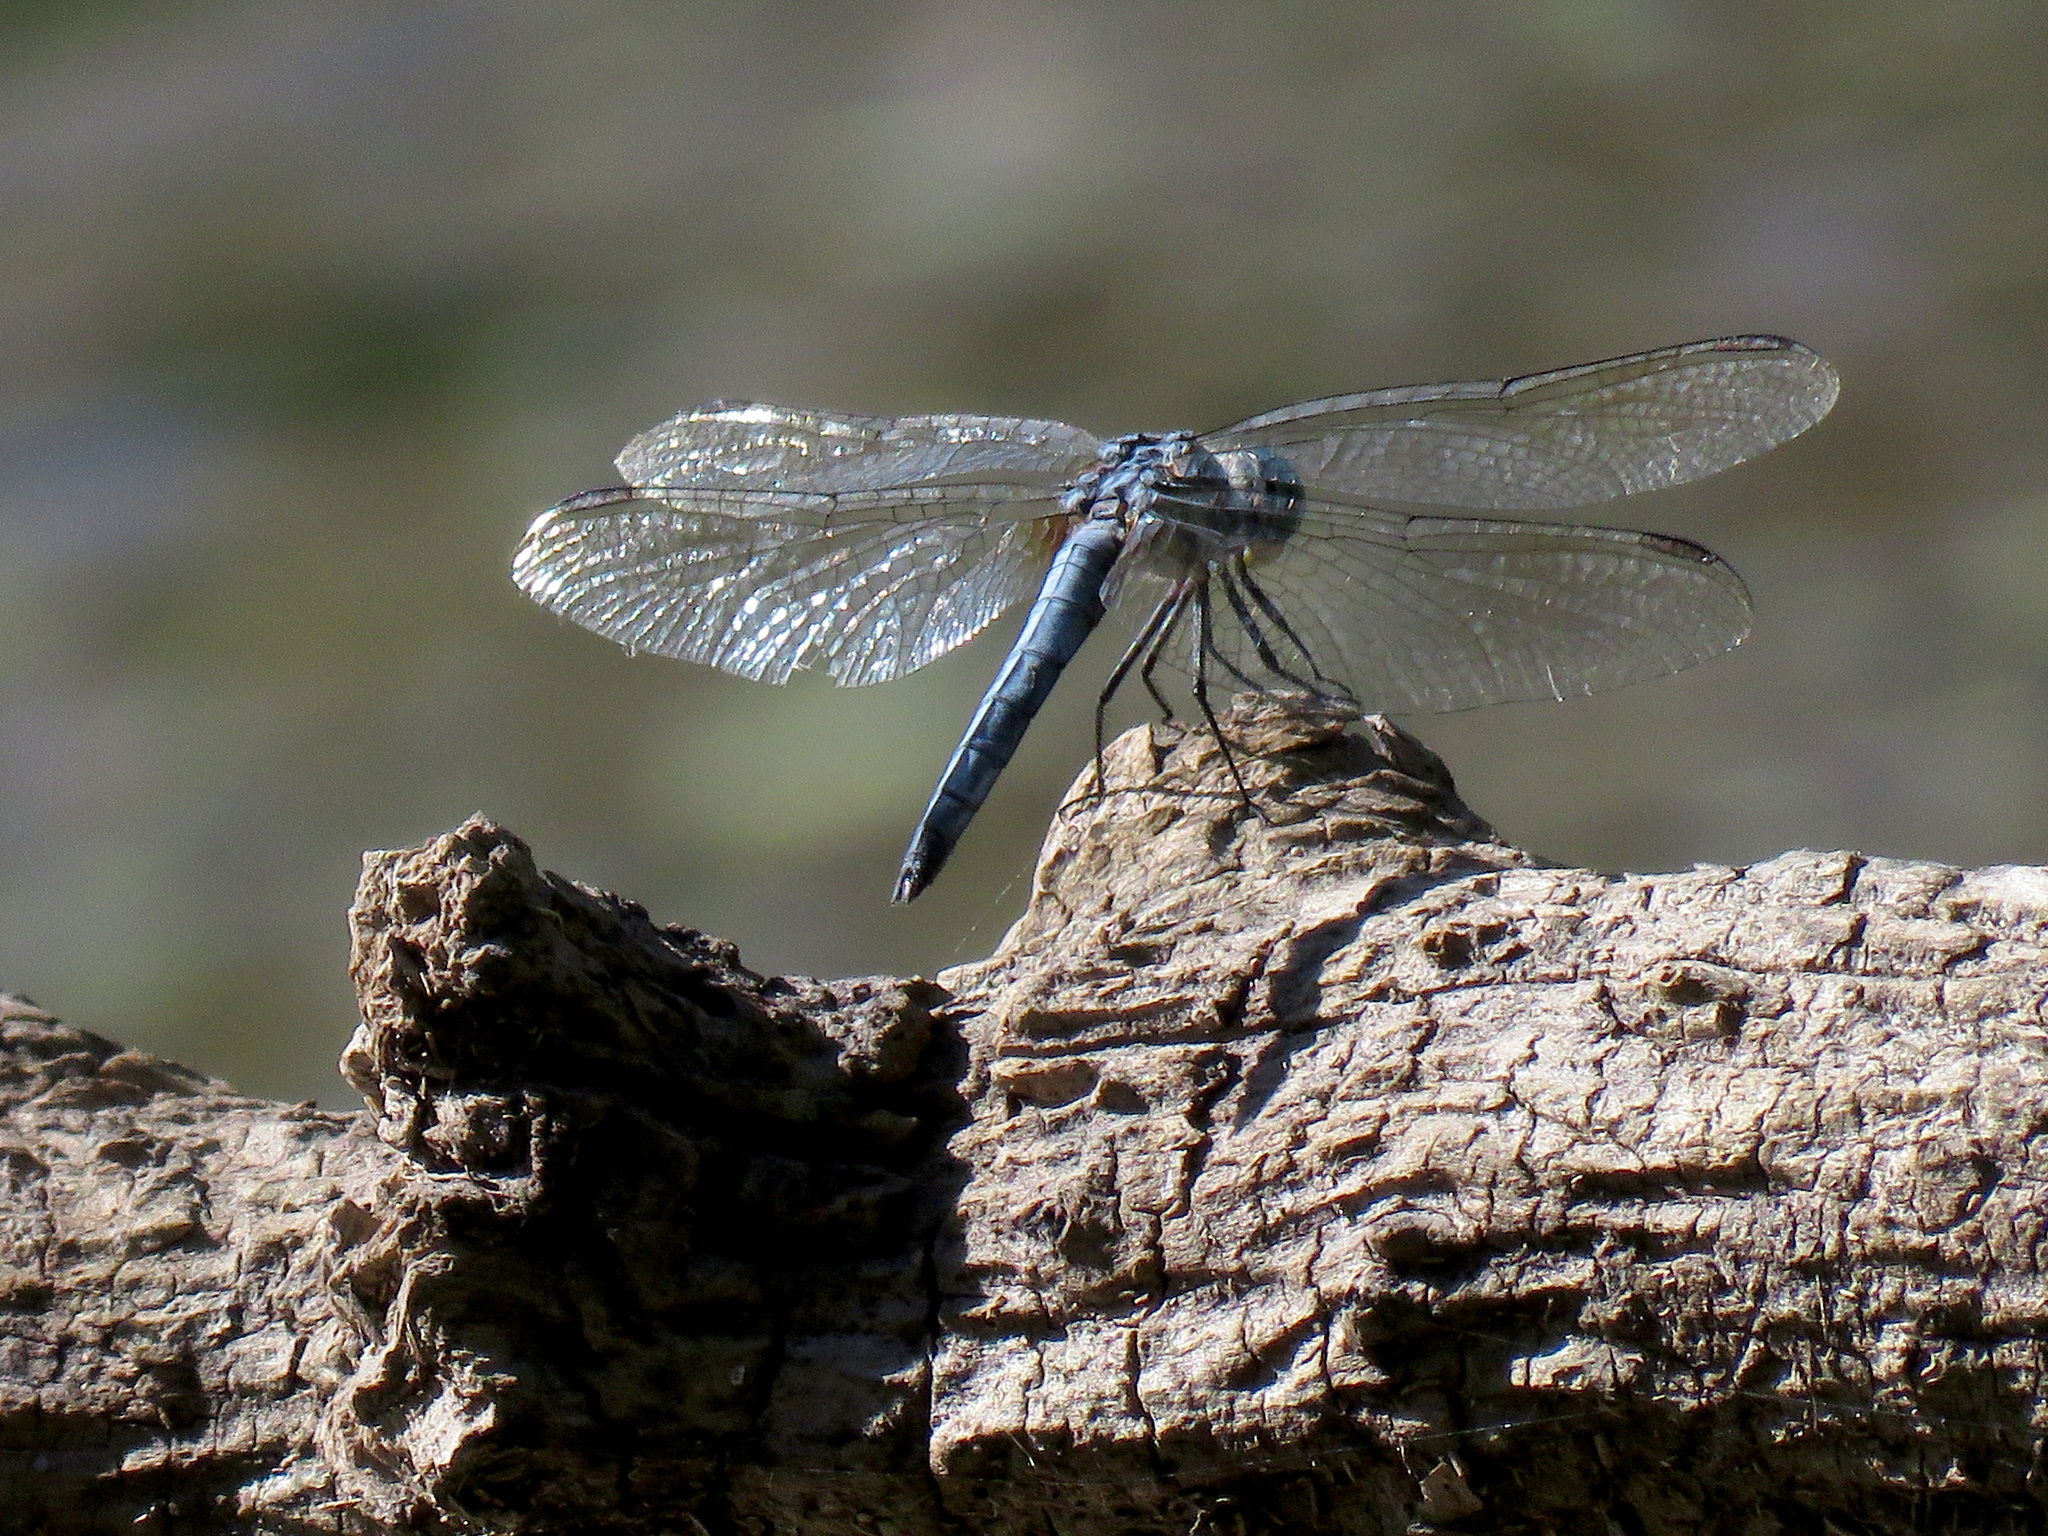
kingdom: Animalia
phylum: Arthropoda
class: Insecta
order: Odonata
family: Libellulidae
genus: Pachydiplax
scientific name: Pachydiplax longipennis
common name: Blue dasher
